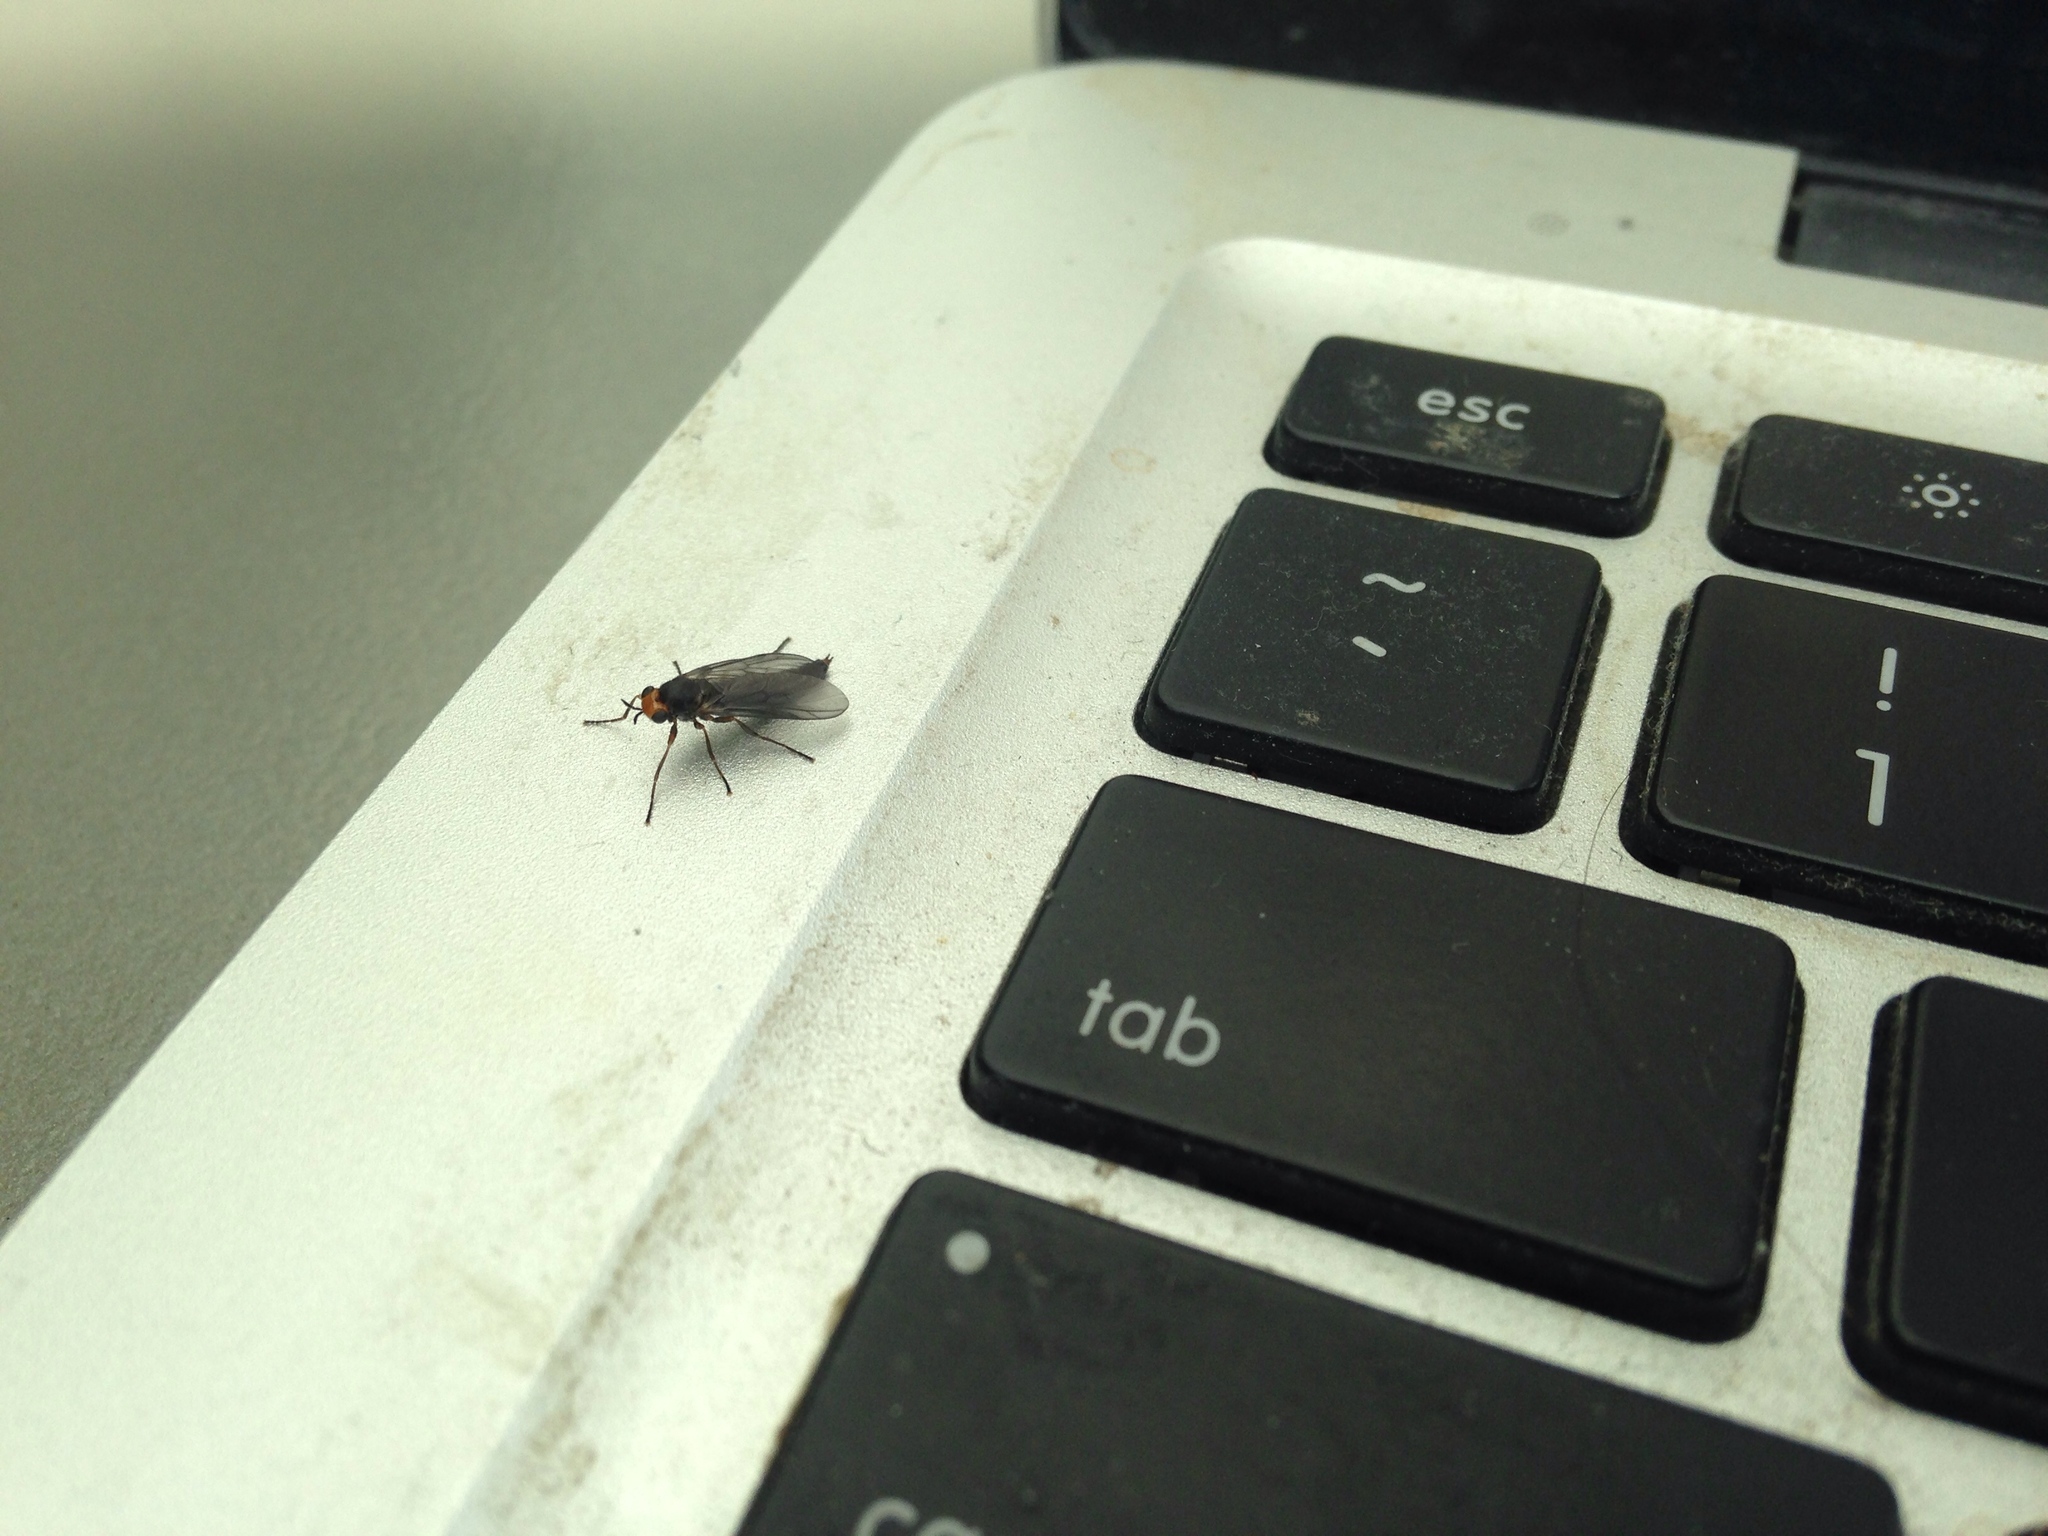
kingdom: Animalia
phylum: Arthropoda
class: Insecta
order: Diptera
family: Stratiomyidae
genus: Inopus
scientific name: Inopus rubriceps
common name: Soldier fly
